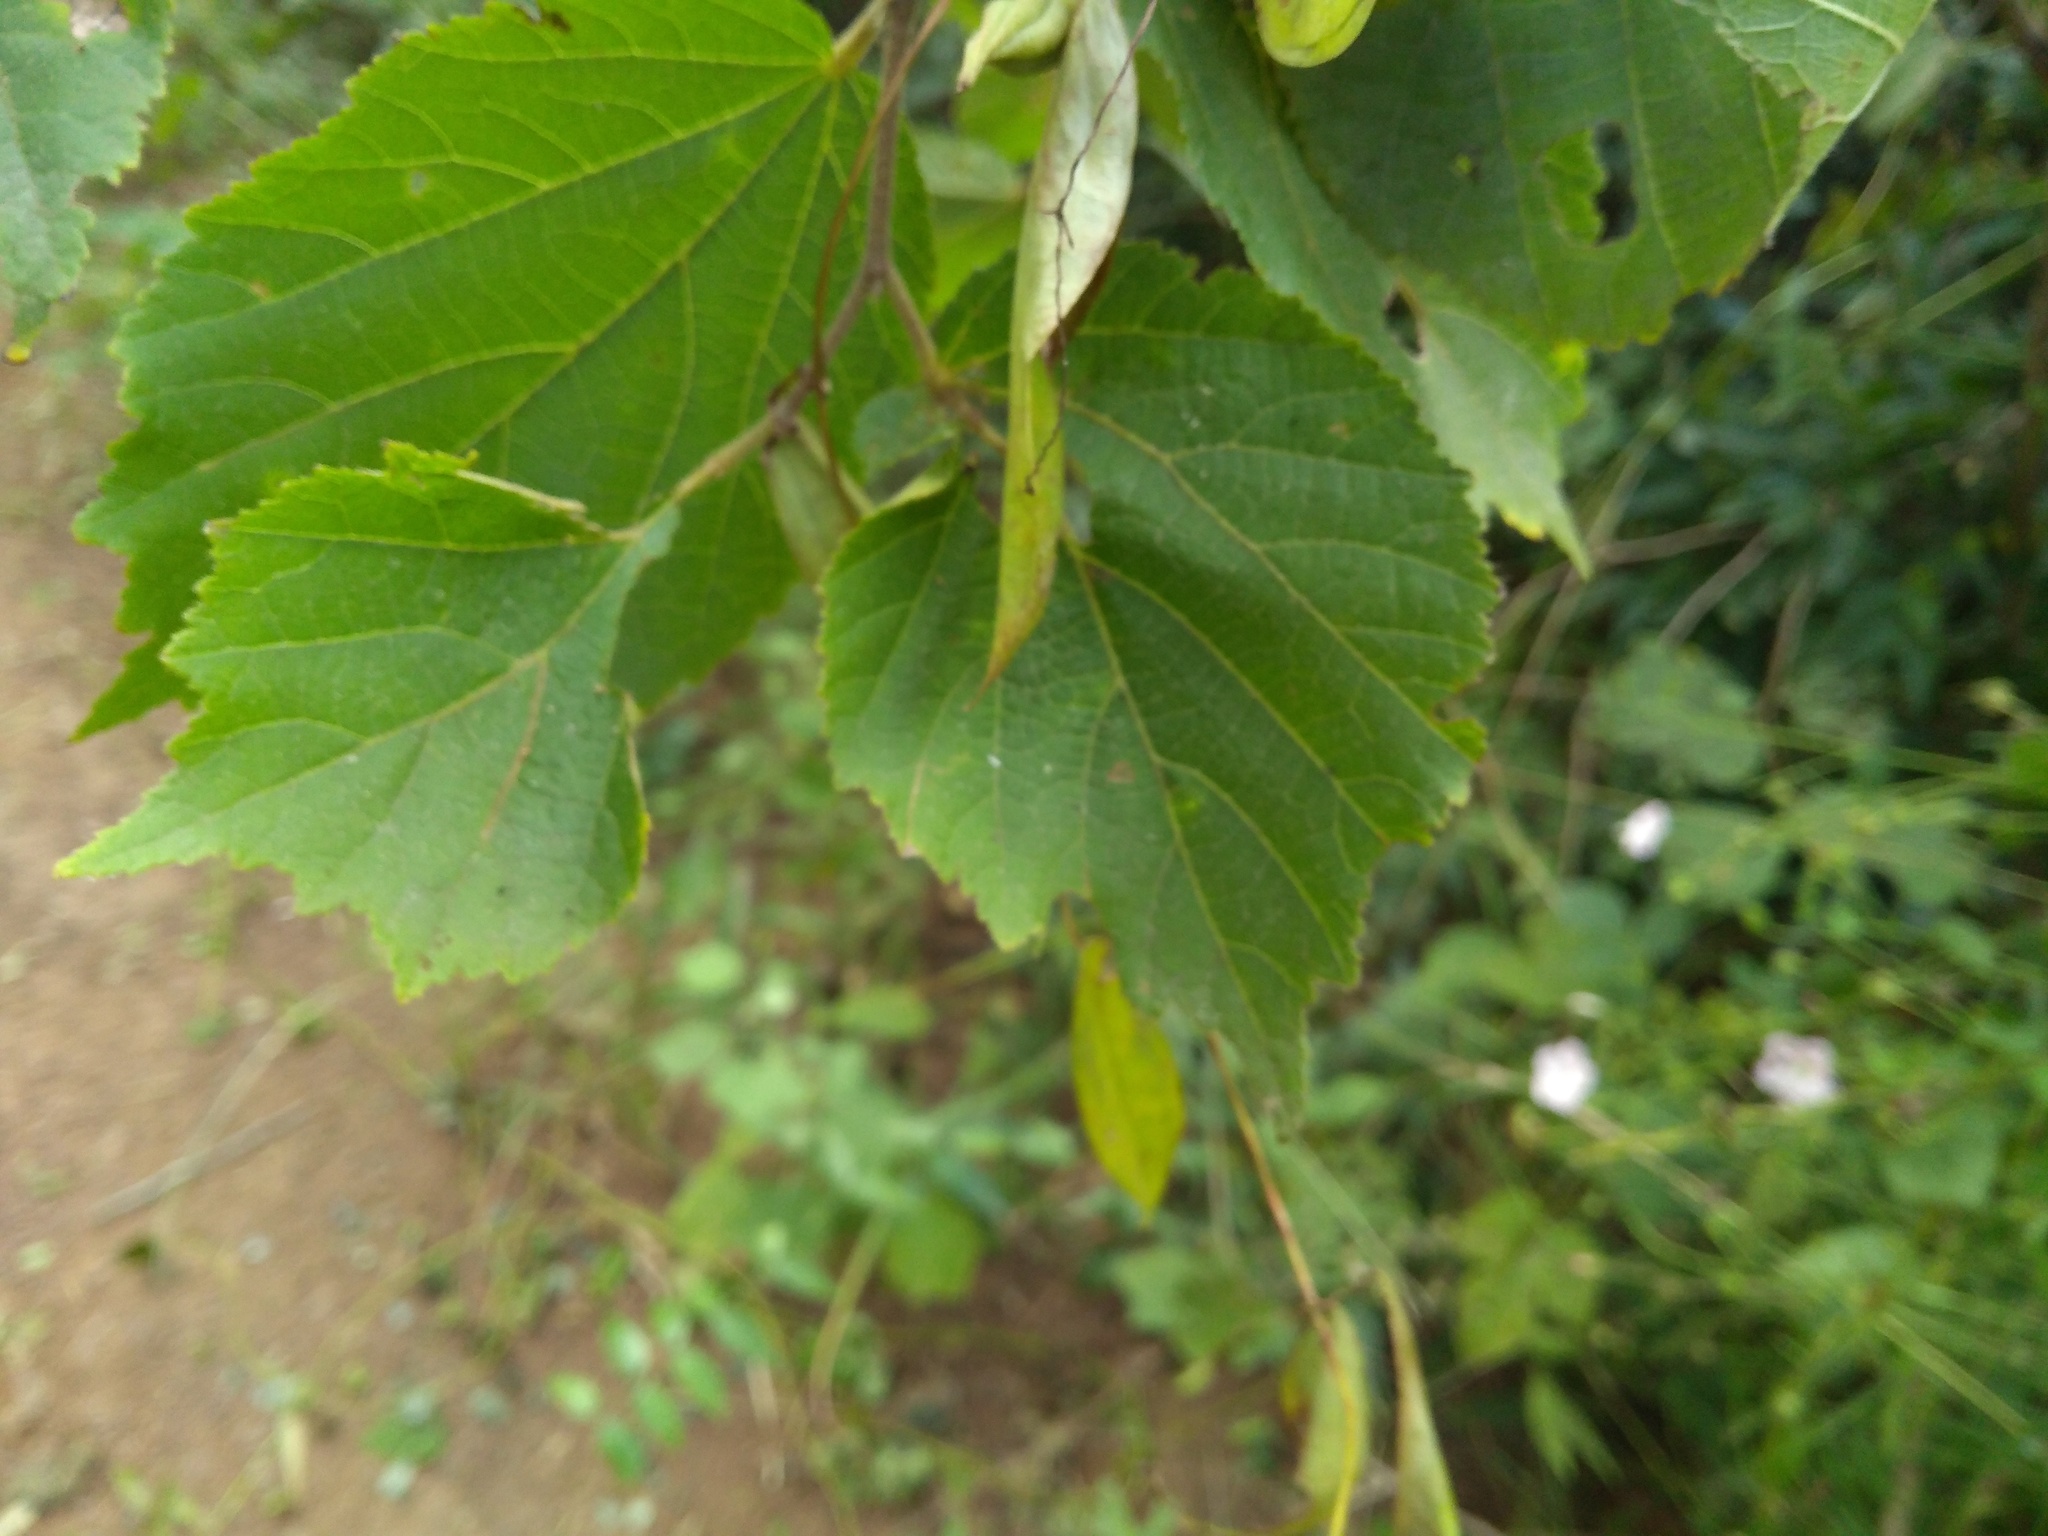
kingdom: Plantae
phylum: Tracheophyta
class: Magnoliopsida
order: Malvales
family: Malvaceae
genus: Helicteres
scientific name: Helicteres isora
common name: East indian screwtree
